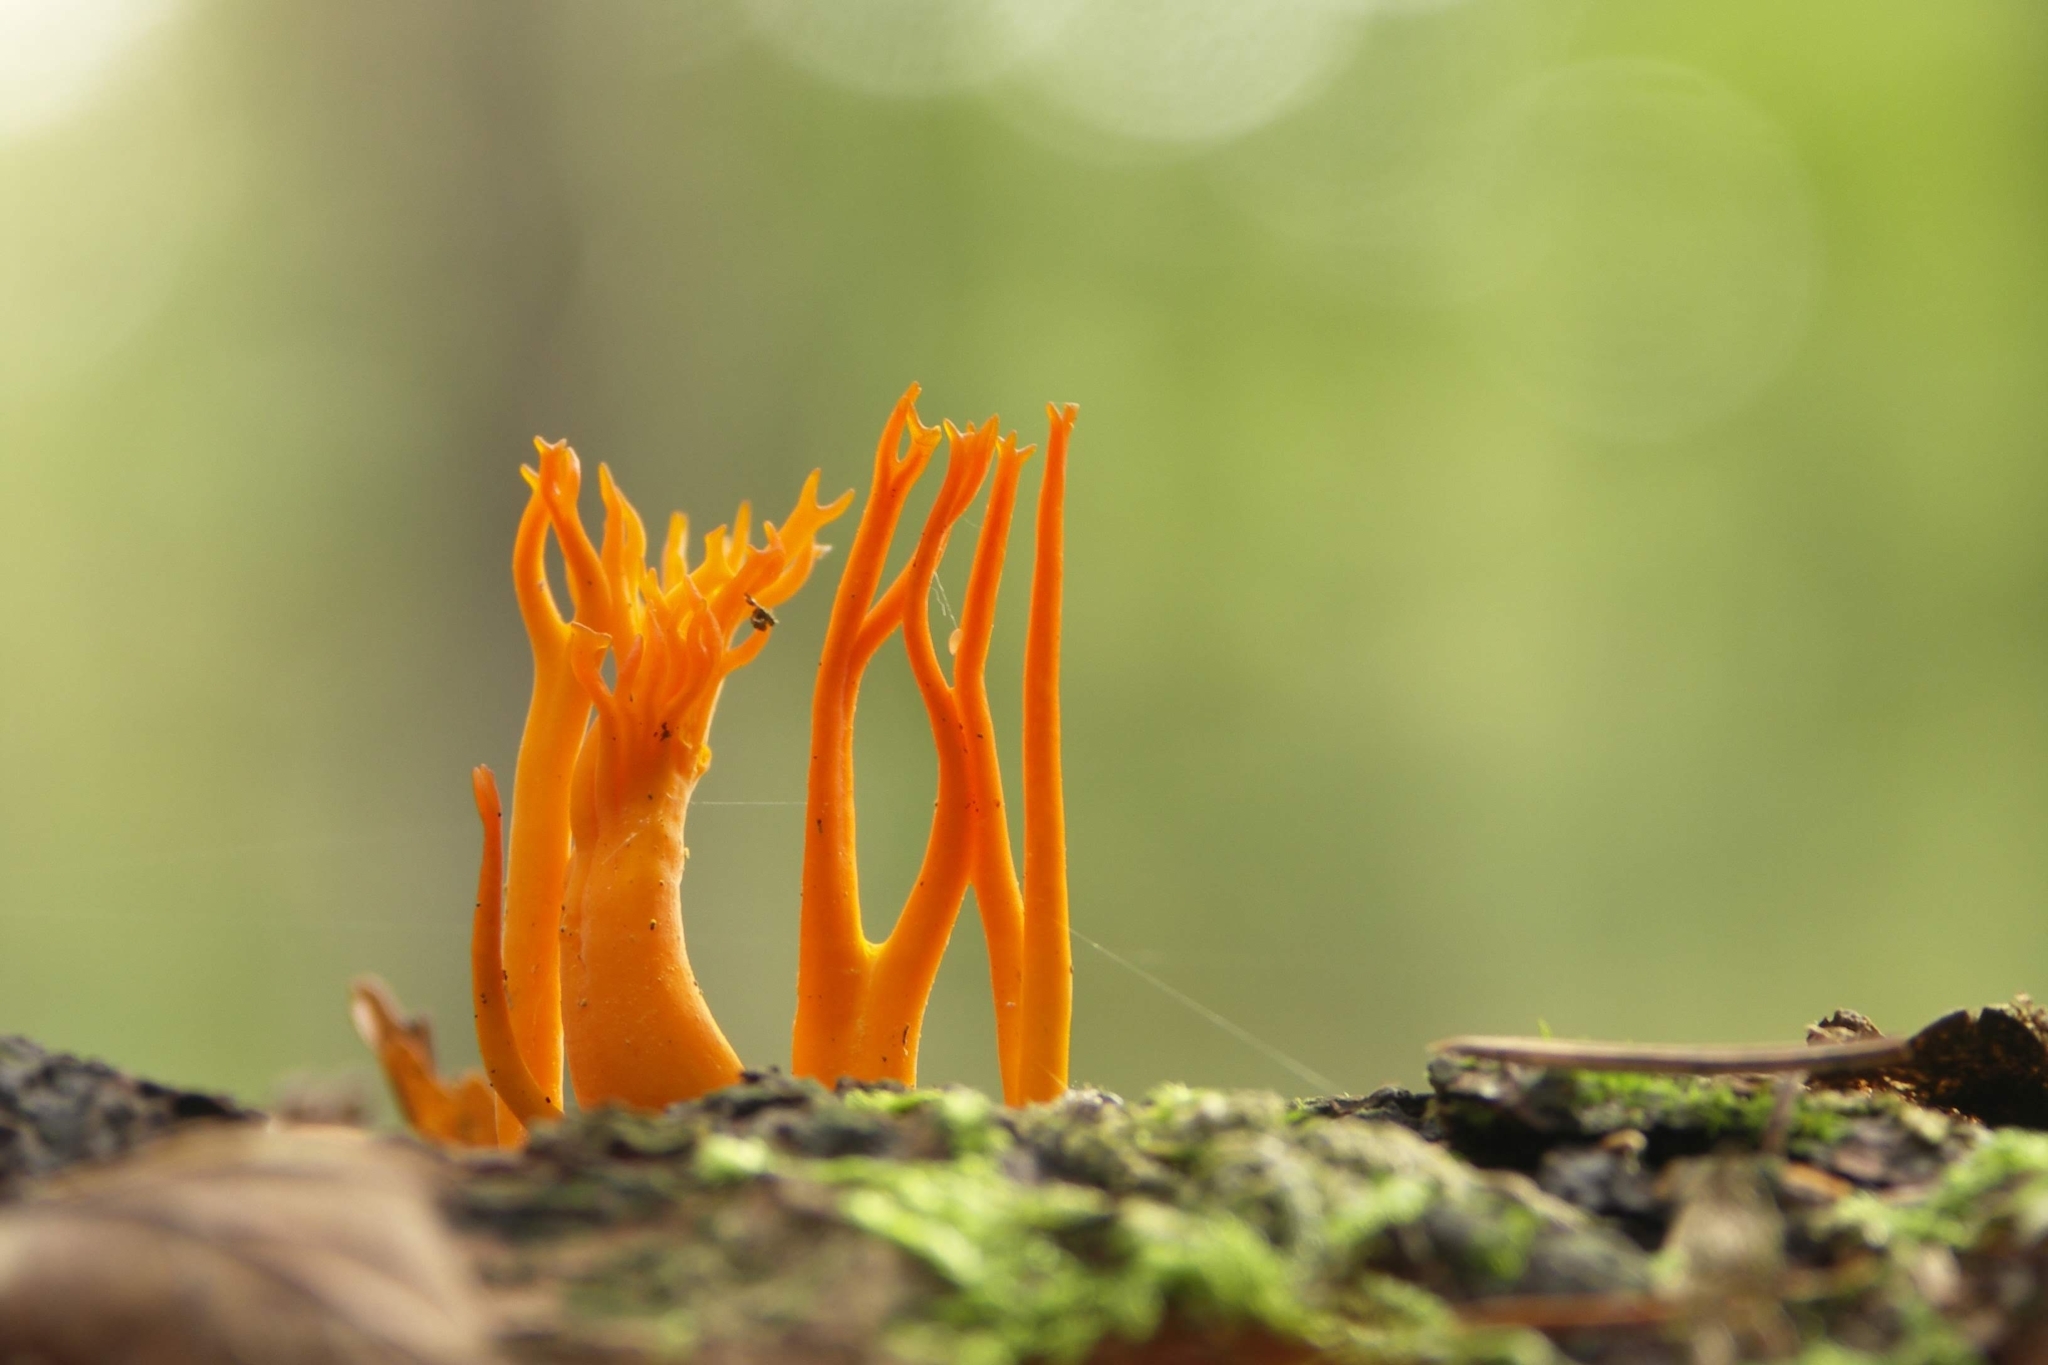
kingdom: Fungi
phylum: Basidiomycota
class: Dacrymycetes
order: Dacrymycetales
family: Dacrymycetaceae
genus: Calocera
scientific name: Calocera viscosa
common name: Yellow stagshorn
